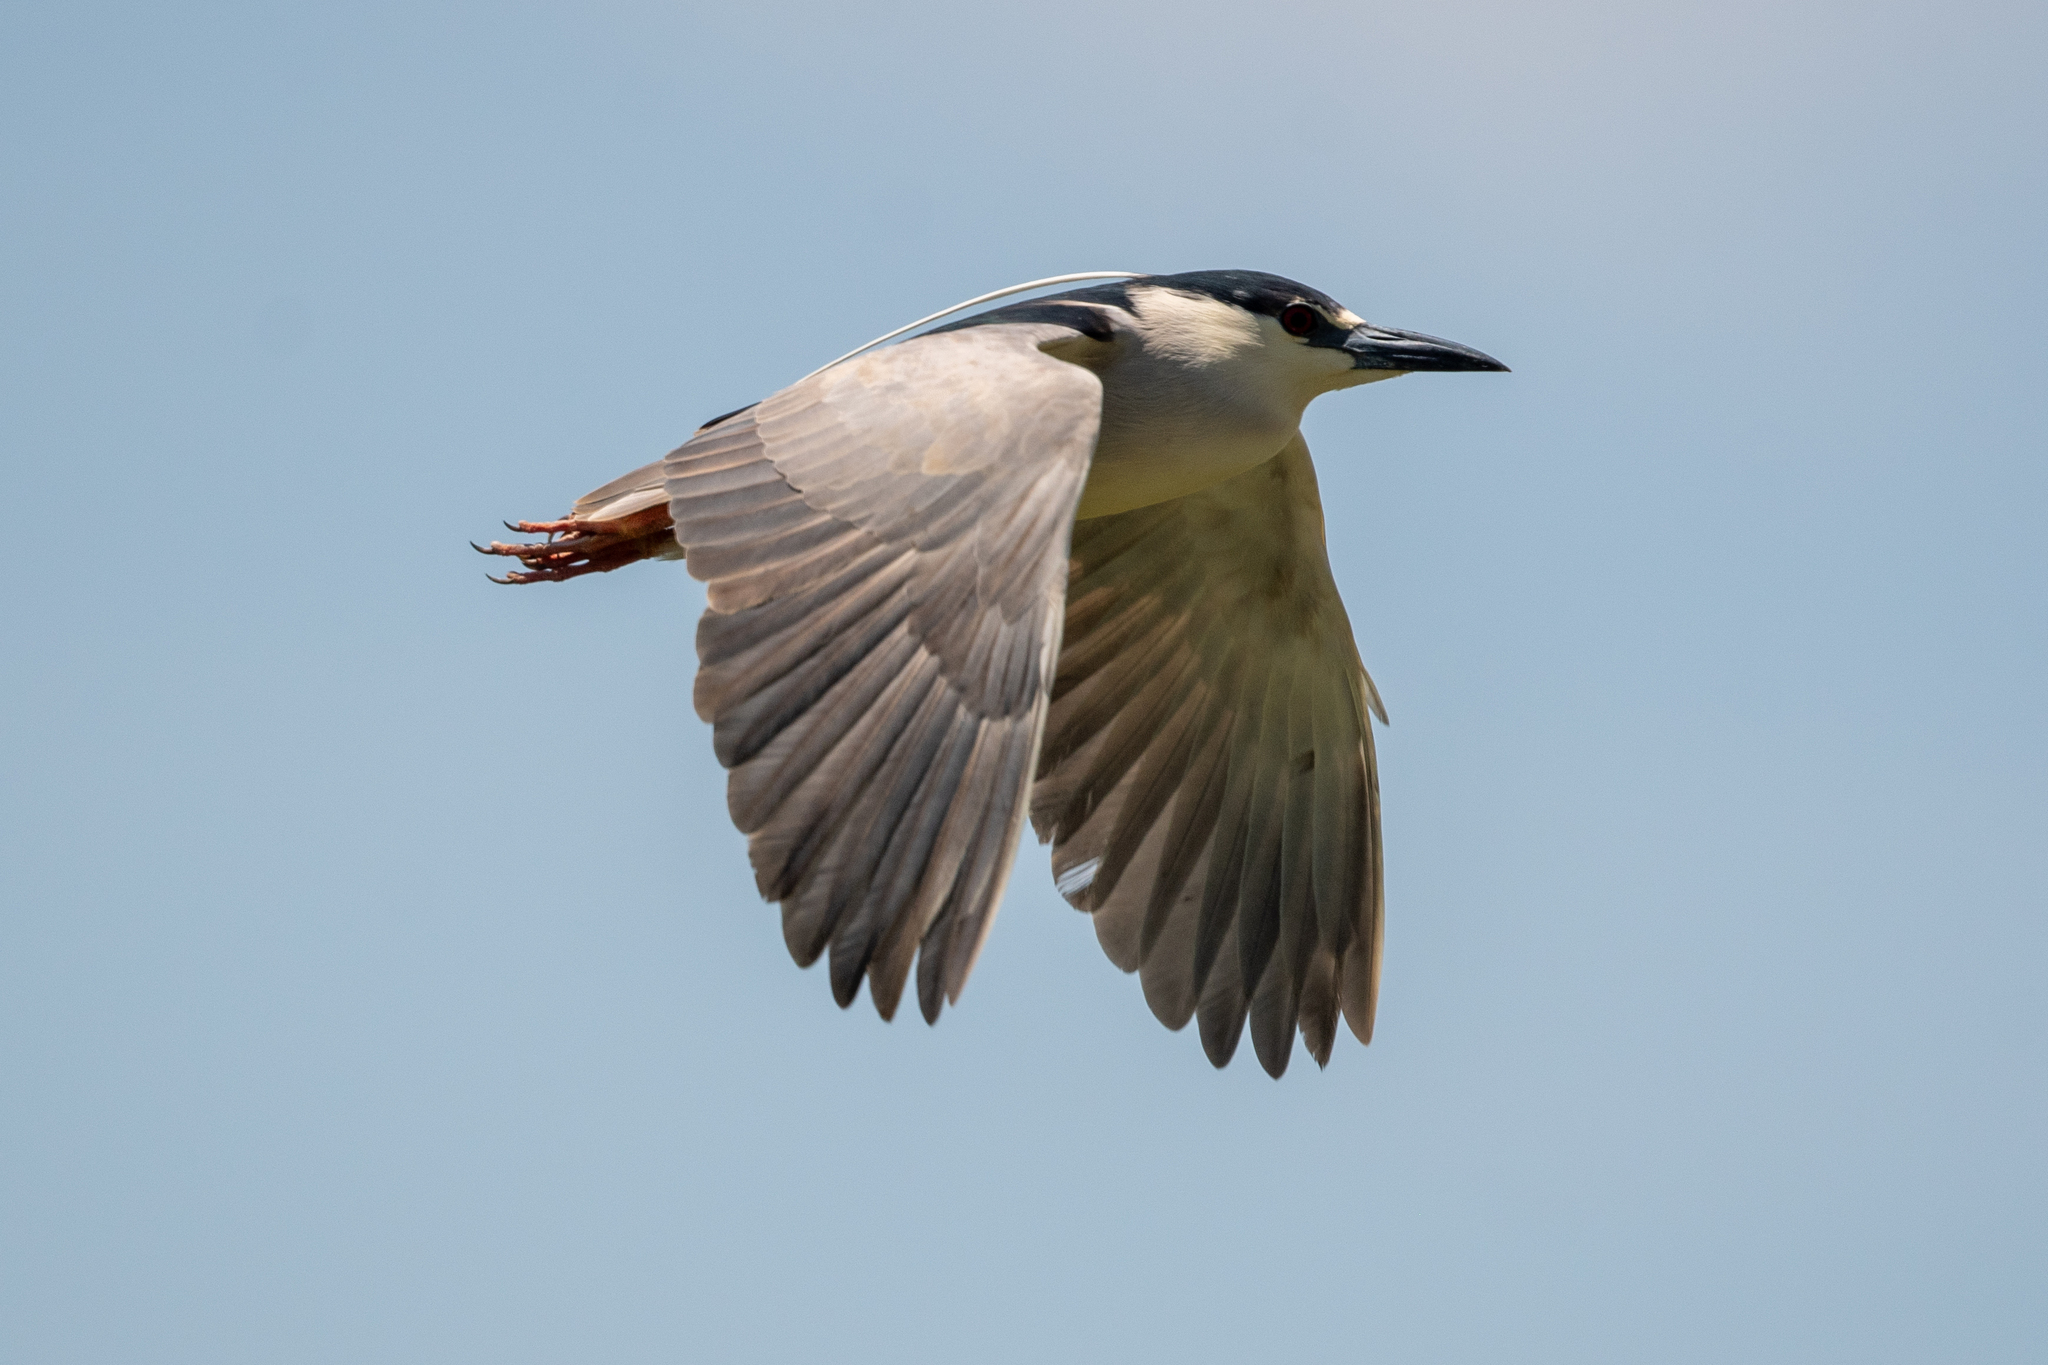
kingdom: Animalia
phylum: Chordata
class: Aves
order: Pelecaniformes
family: Ardeidae
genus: Nycticorax
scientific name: Nycticorax nycticorax
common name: Black-crowned night heron
